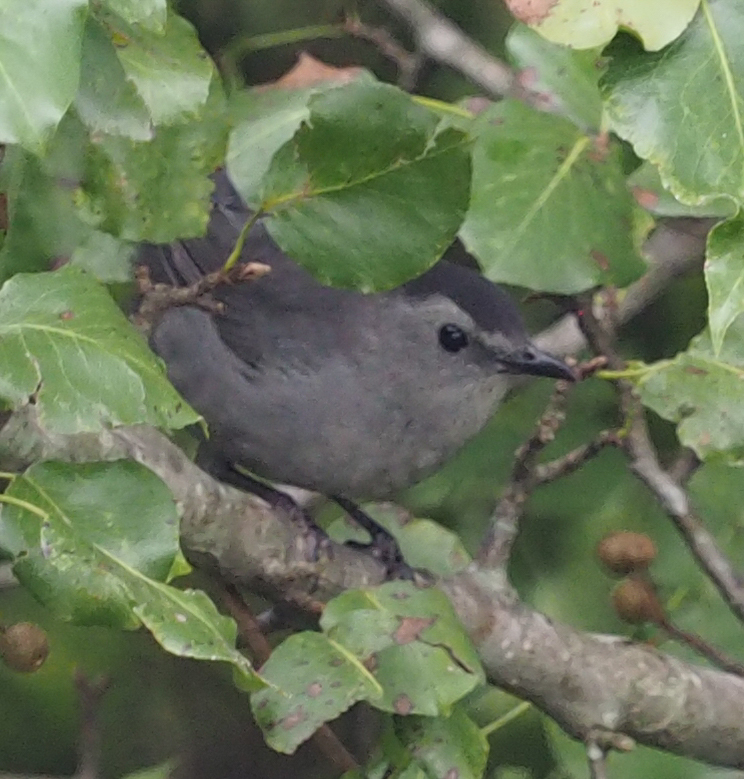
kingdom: Animalia
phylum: Chordata
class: Aves
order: Passeriformes
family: Mimidae
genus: Dumetella
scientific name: Dumetella carolinensis
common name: Gray catbird
